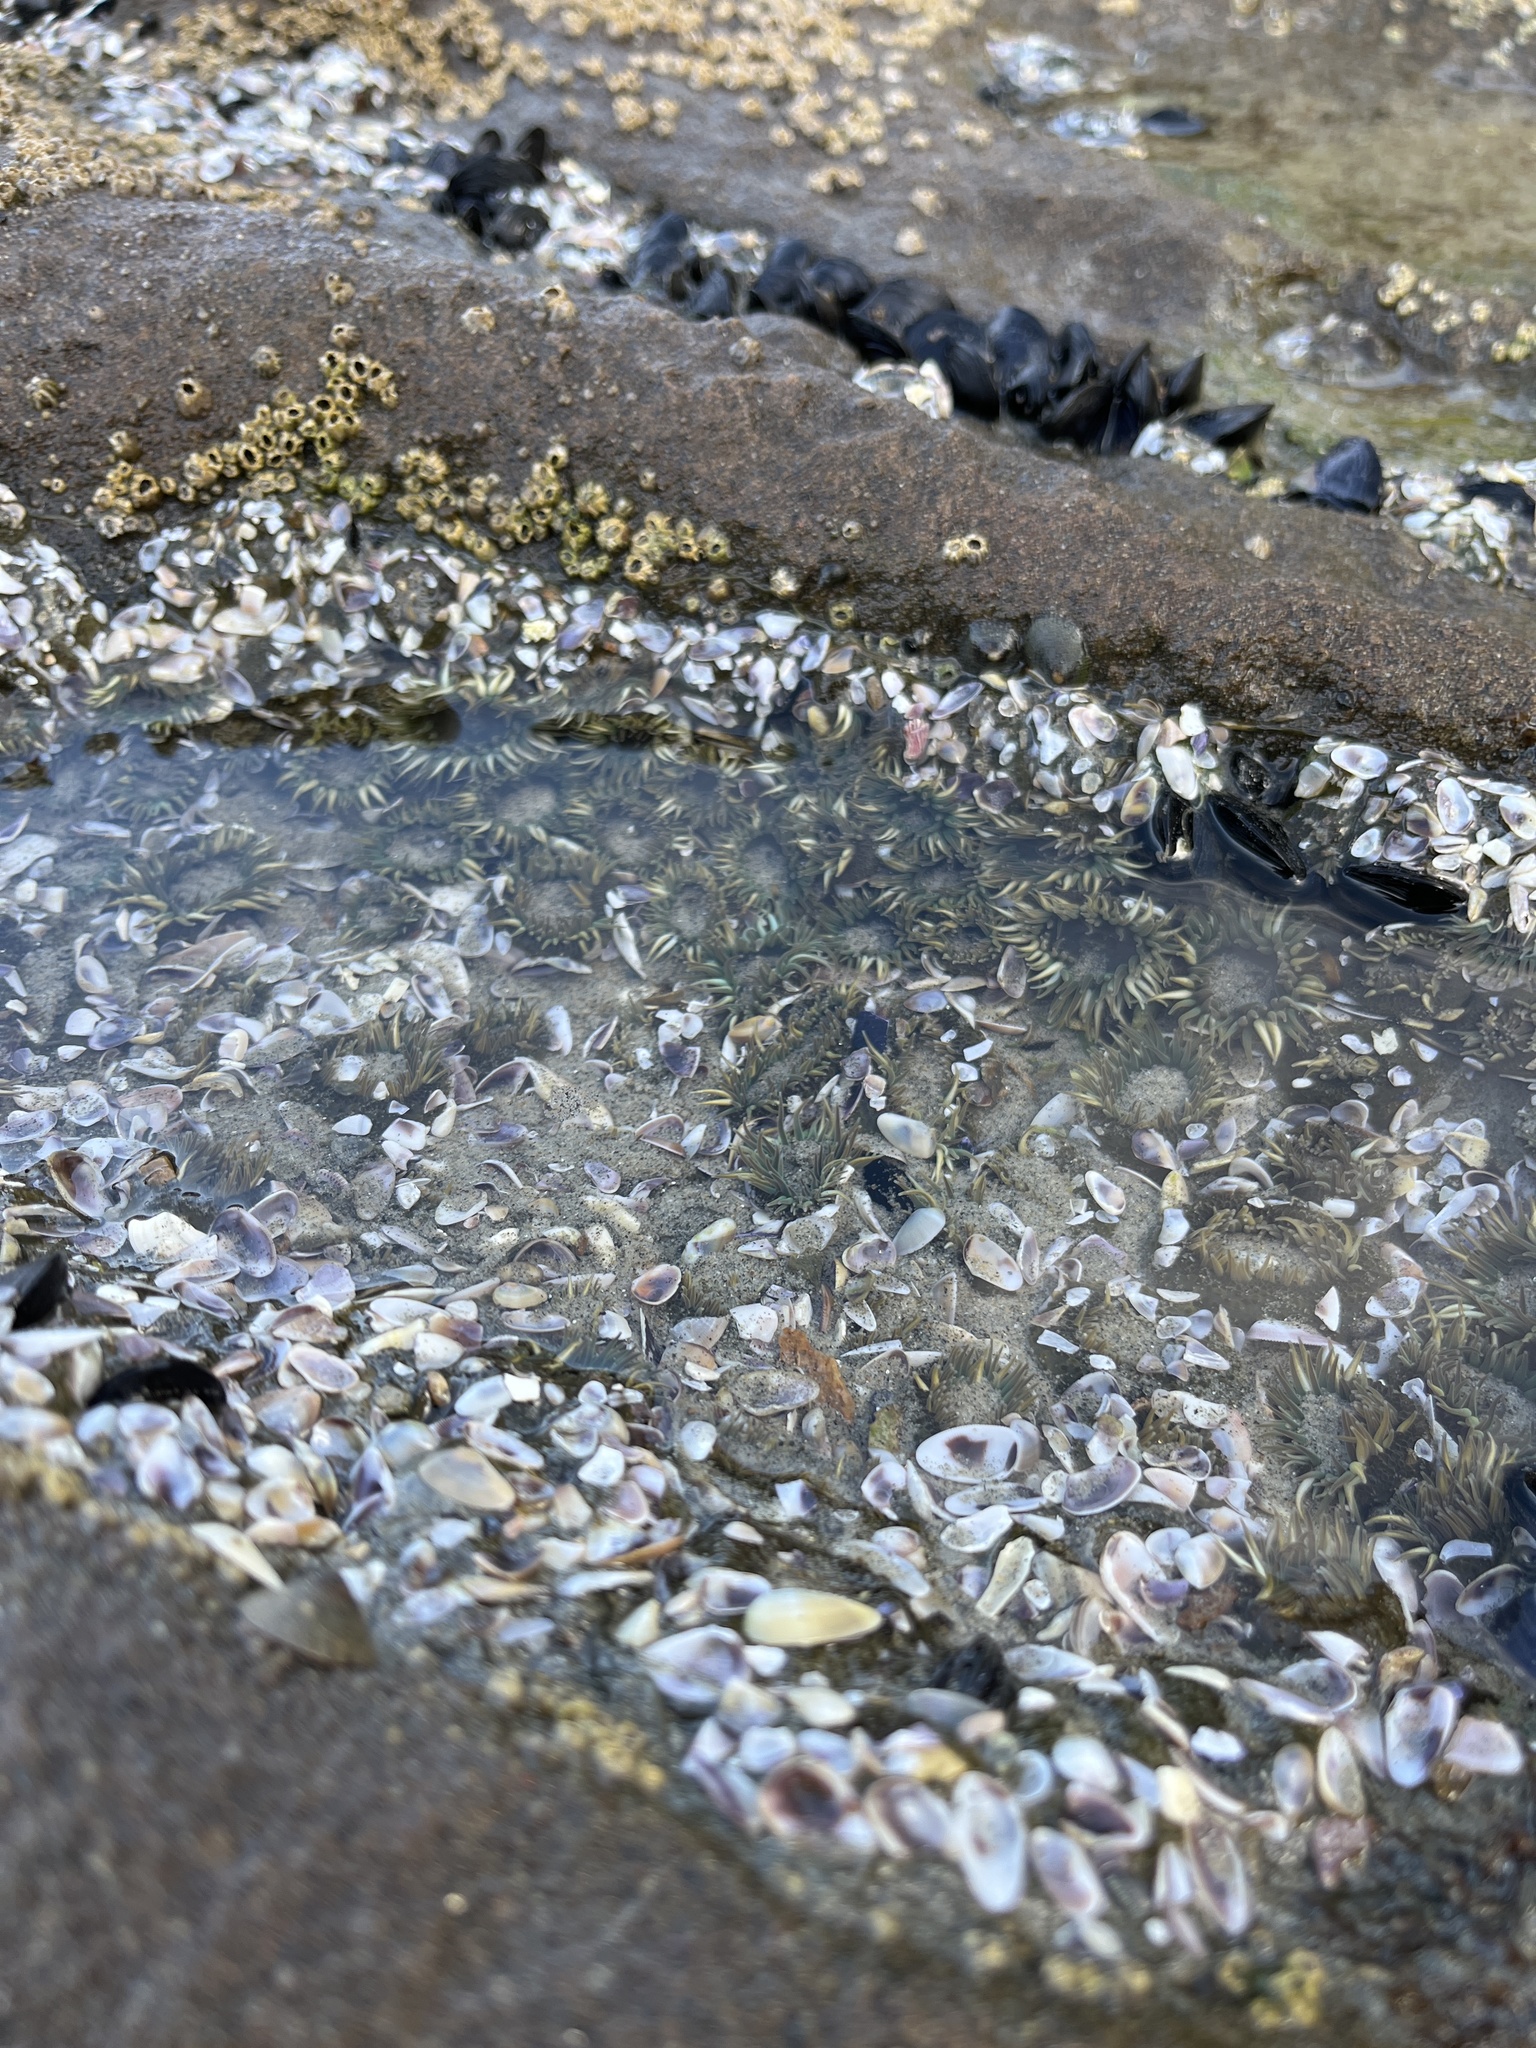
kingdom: Animalia
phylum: Cnidaria
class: Anthozoa
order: Actiniaria
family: Actiniidae
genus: Anthopleura
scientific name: Anthopleura elegantissima
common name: Clonal anemone
